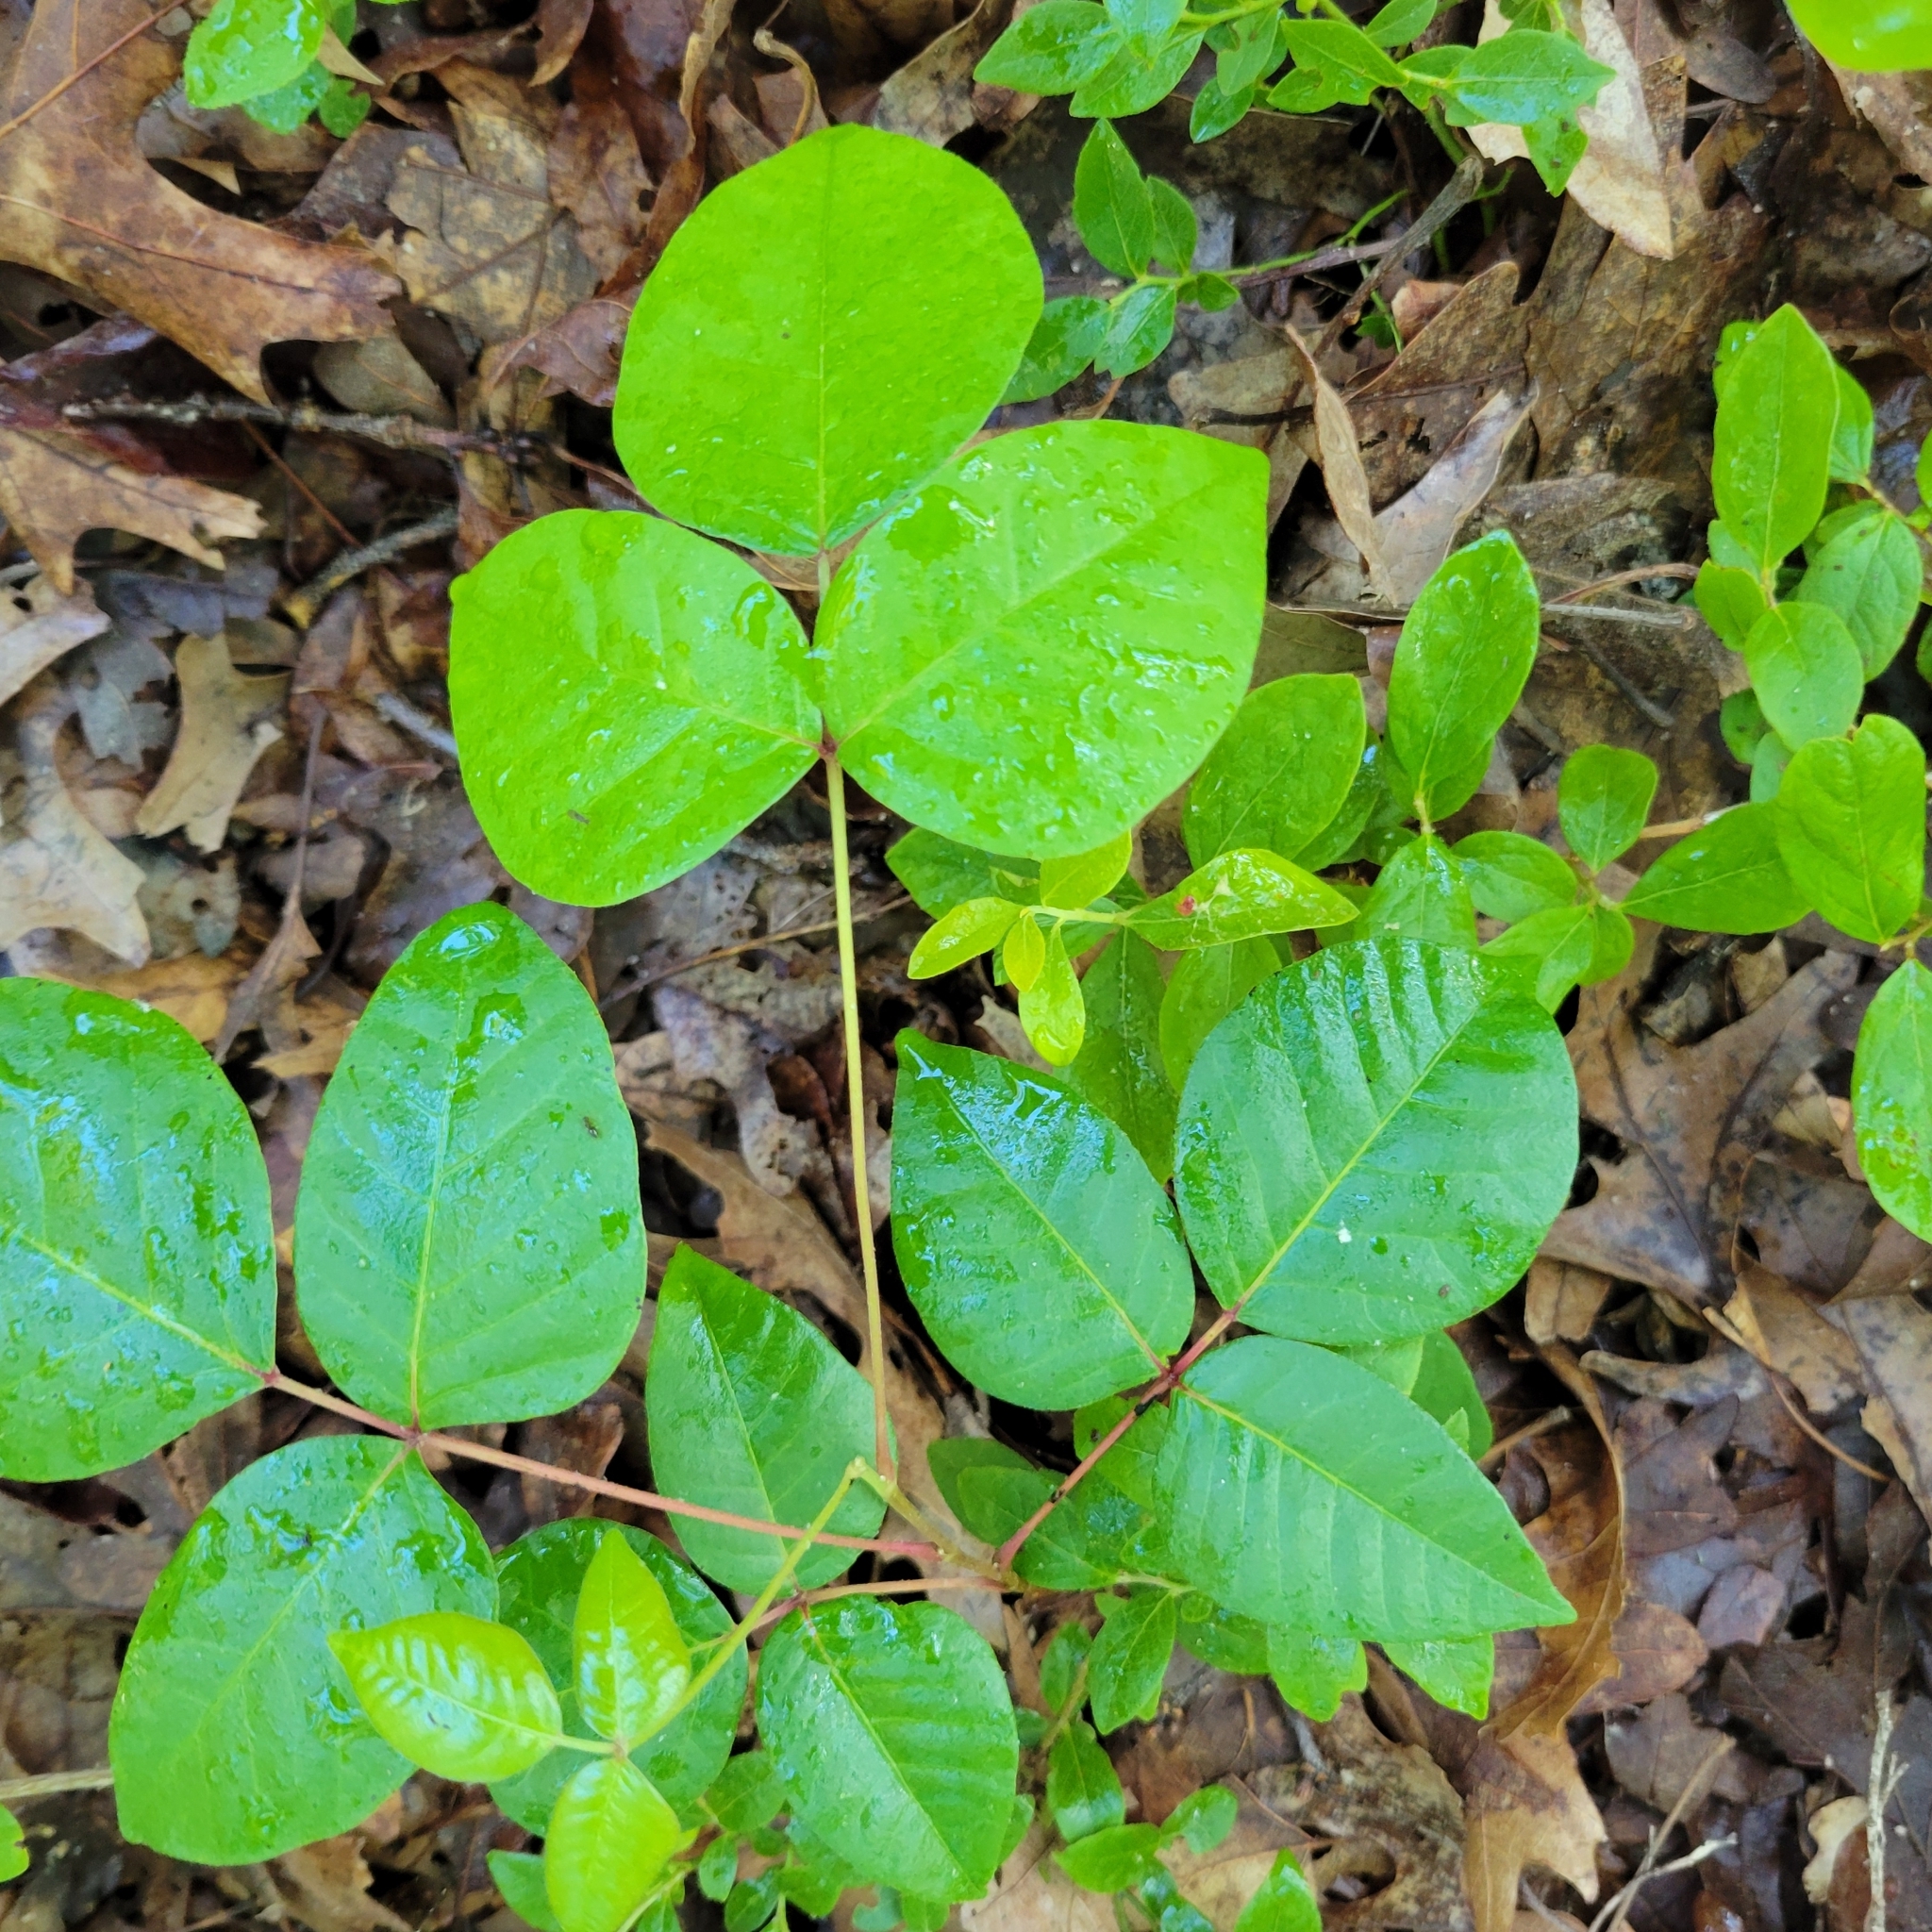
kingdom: Plantae
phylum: Tracheophyta
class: Magnoliopsida
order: Sapindales
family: Anacardiaceae
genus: Toxicodendron
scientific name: Toxicodendron radicans
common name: Poison ivy
